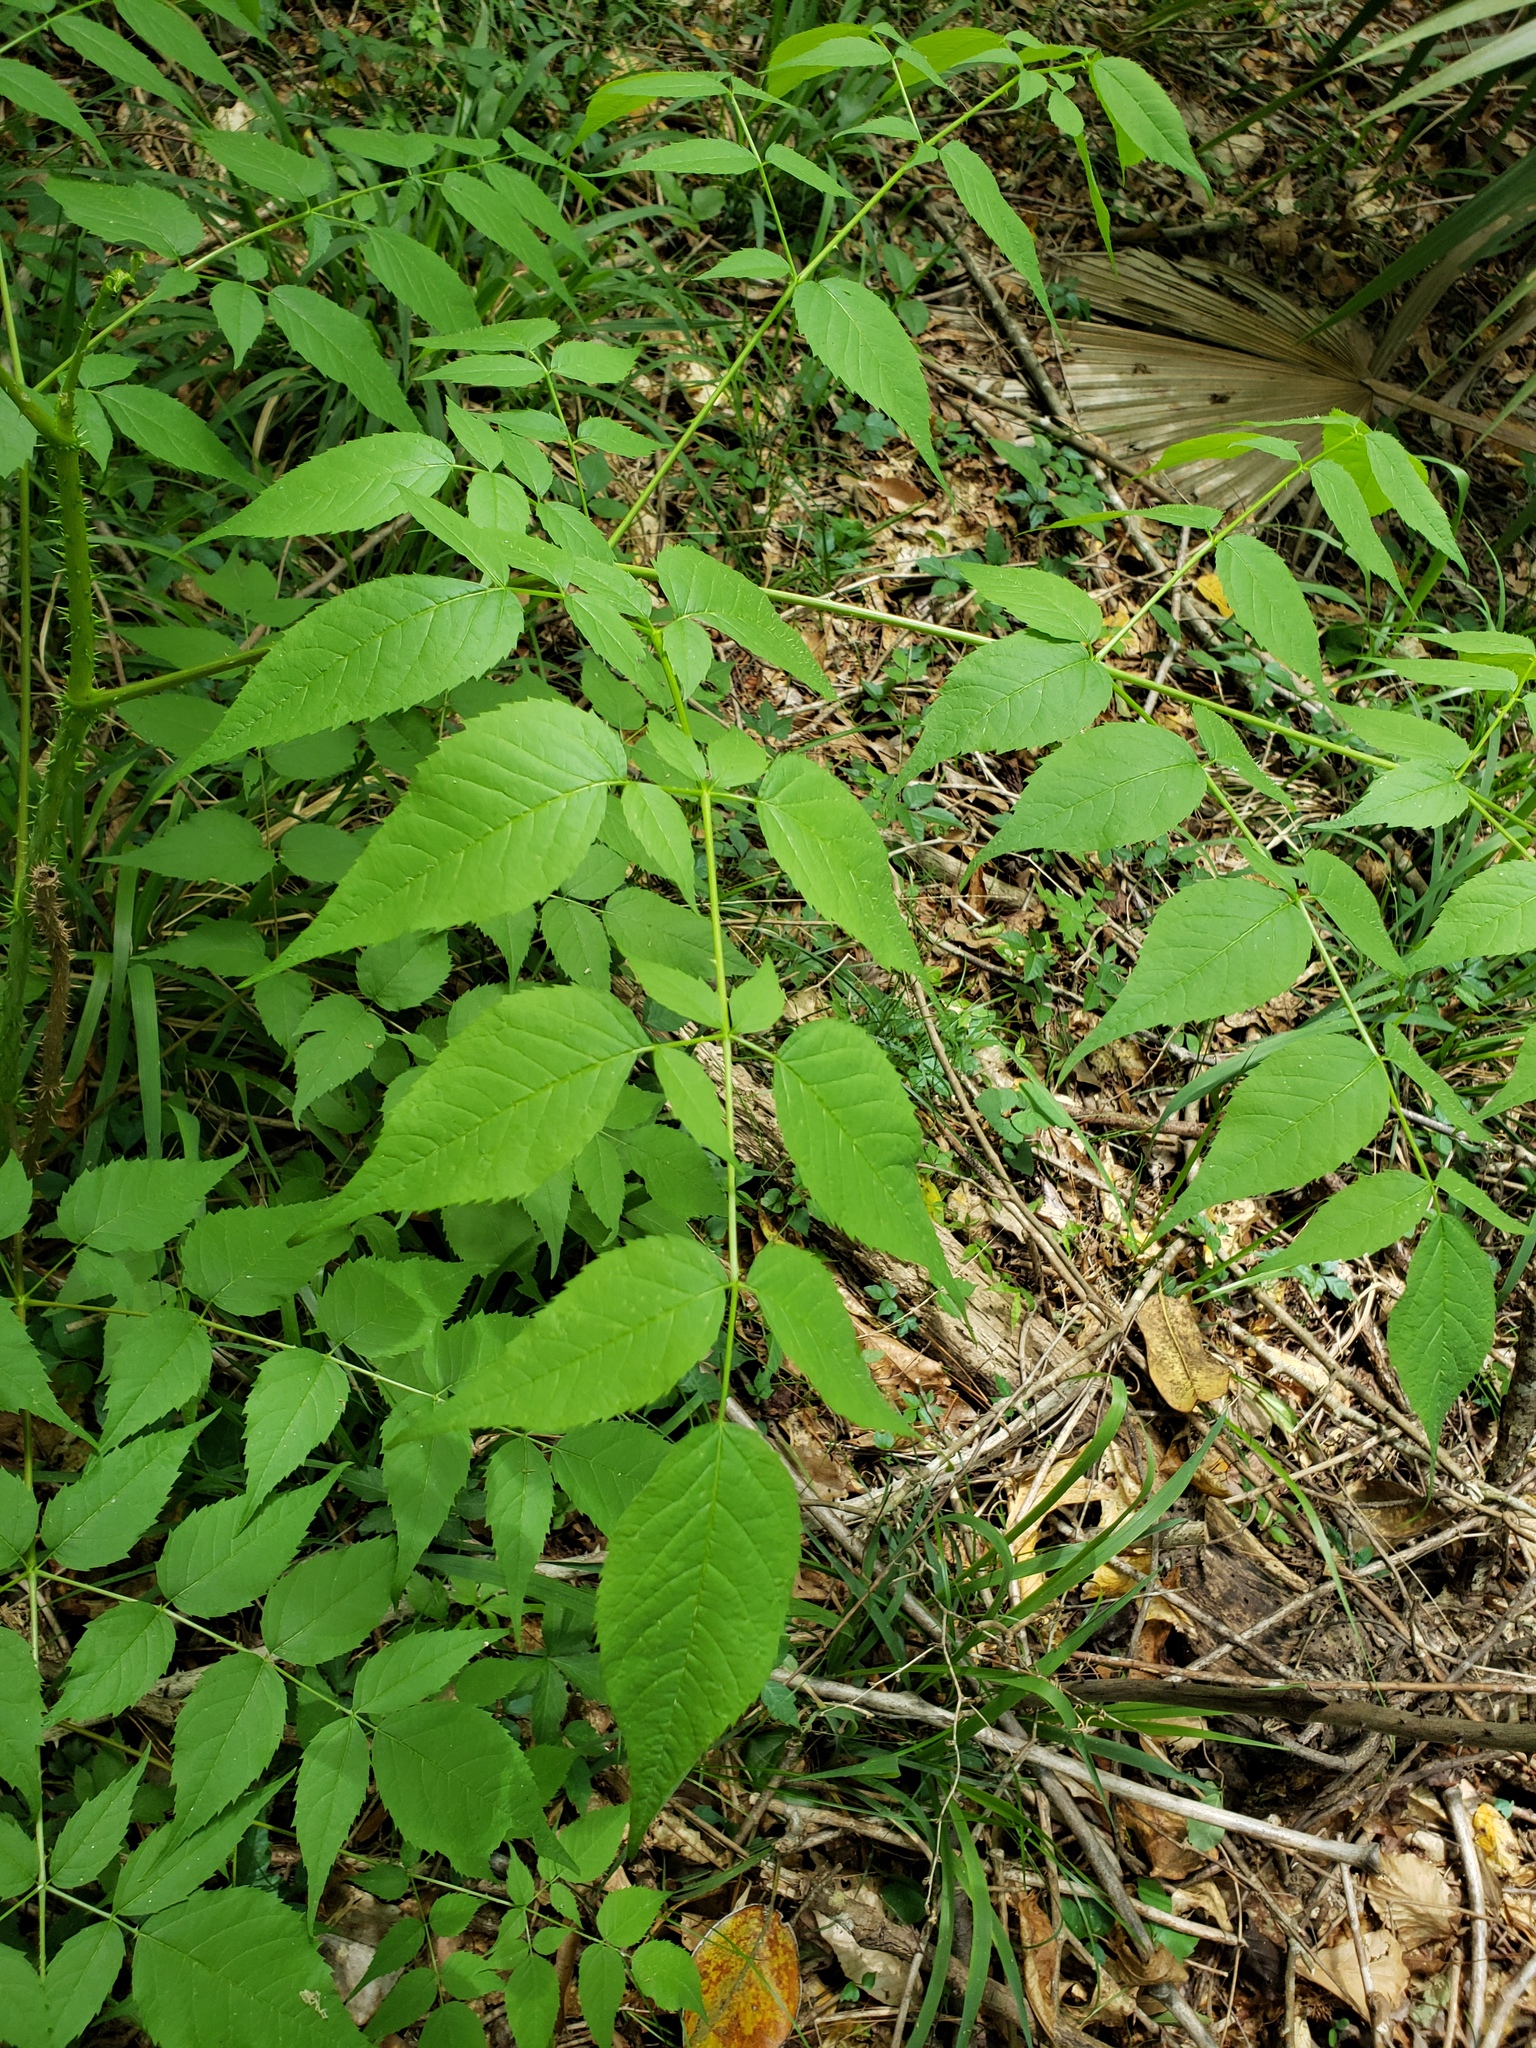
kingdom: Plantae
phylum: Tracheophyta
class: Magnoliopsida
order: Apiales
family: Araliaceae
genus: Aralia
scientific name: Aralia spinosa
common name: Hercules'-club
